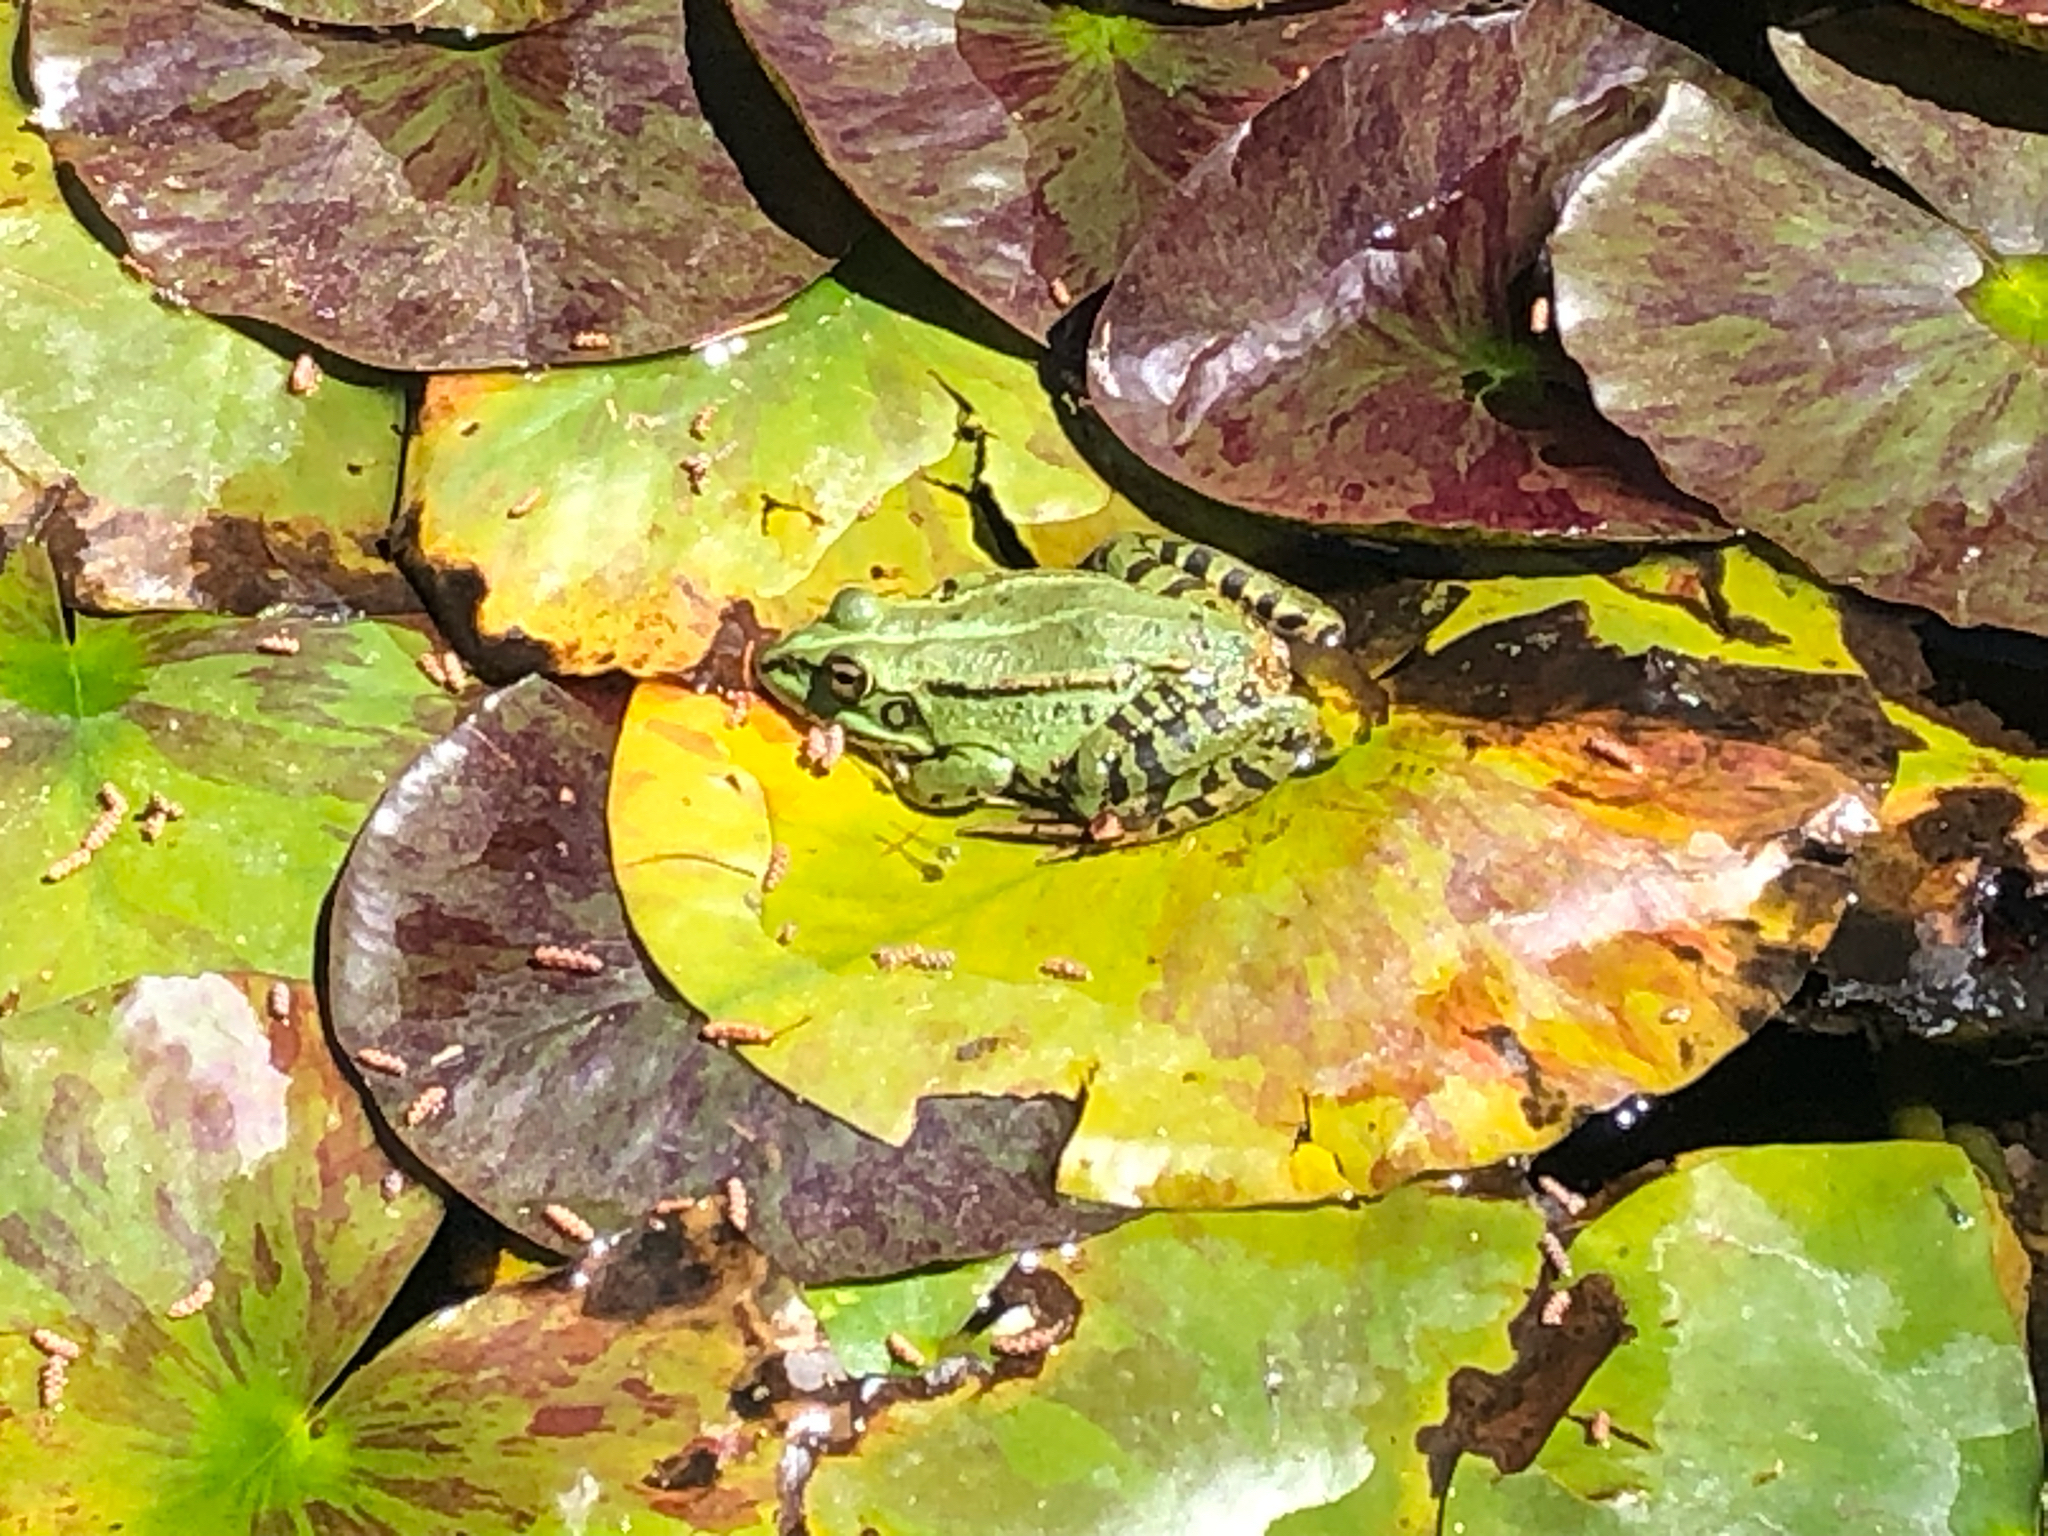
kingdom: Animalia
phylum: Chordata
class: Amphibia
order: Anura
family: Ranidae
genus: Pelophylax
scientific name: Pelophylax perezi
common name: Perez's frog
